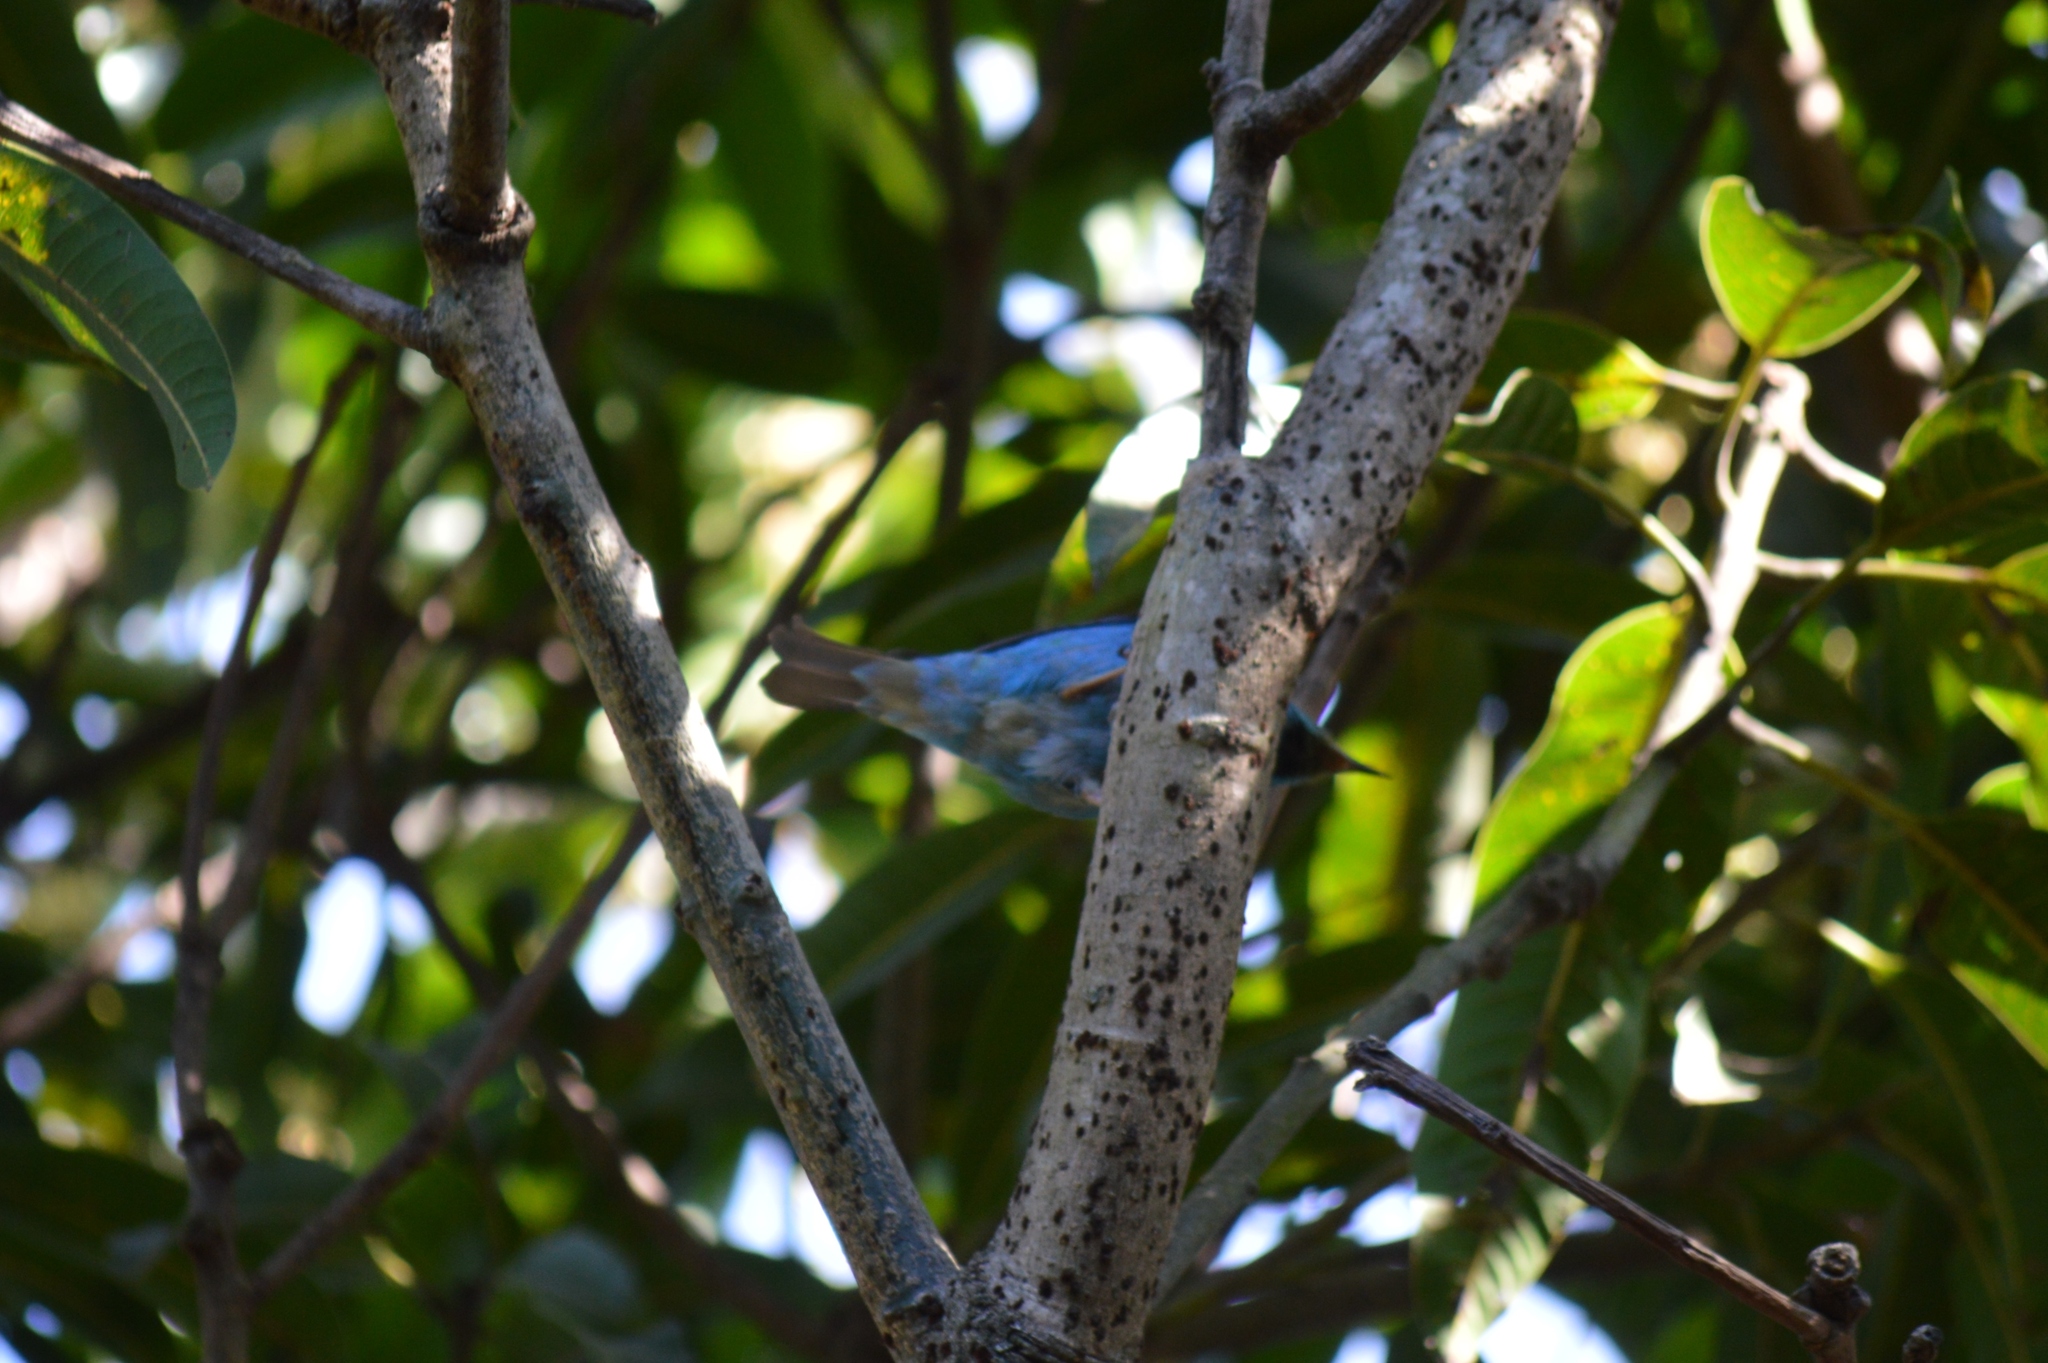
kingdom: Animalia
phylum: Chordata
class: Aves
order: Passeriformes
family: Thraupidae
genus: Dacnis
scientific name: Dacnis cayana
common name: Blue dacnis
